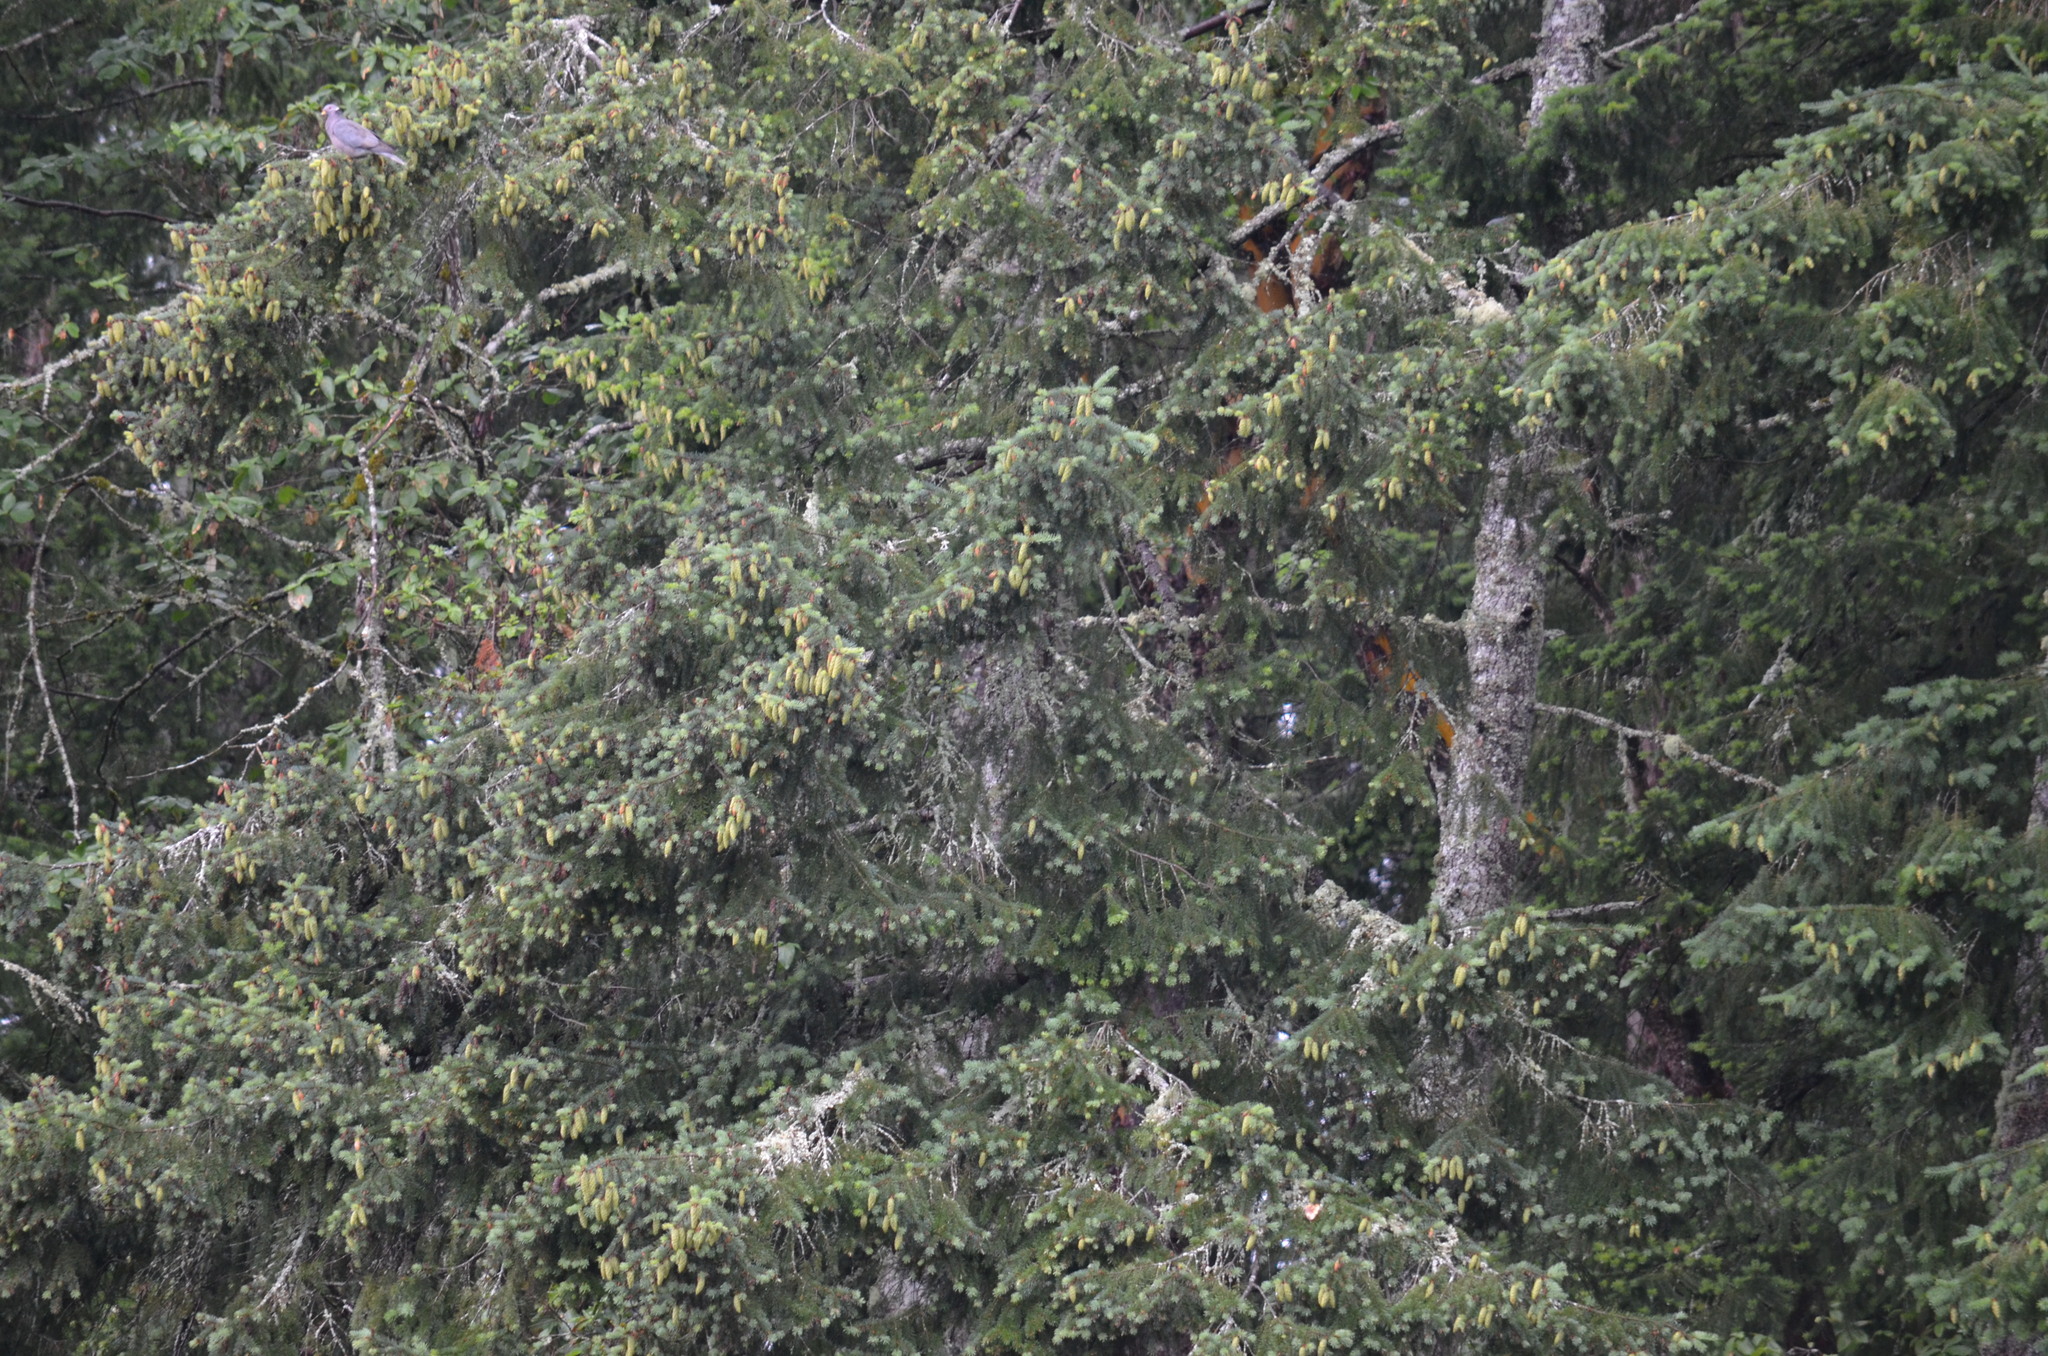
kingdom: Animalia
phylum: Chordata
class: Aves
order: Columbiformes
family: Columbidae
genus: Patagioenas
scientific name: Patagioenas fasciata
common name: Band-tailed pigeon
